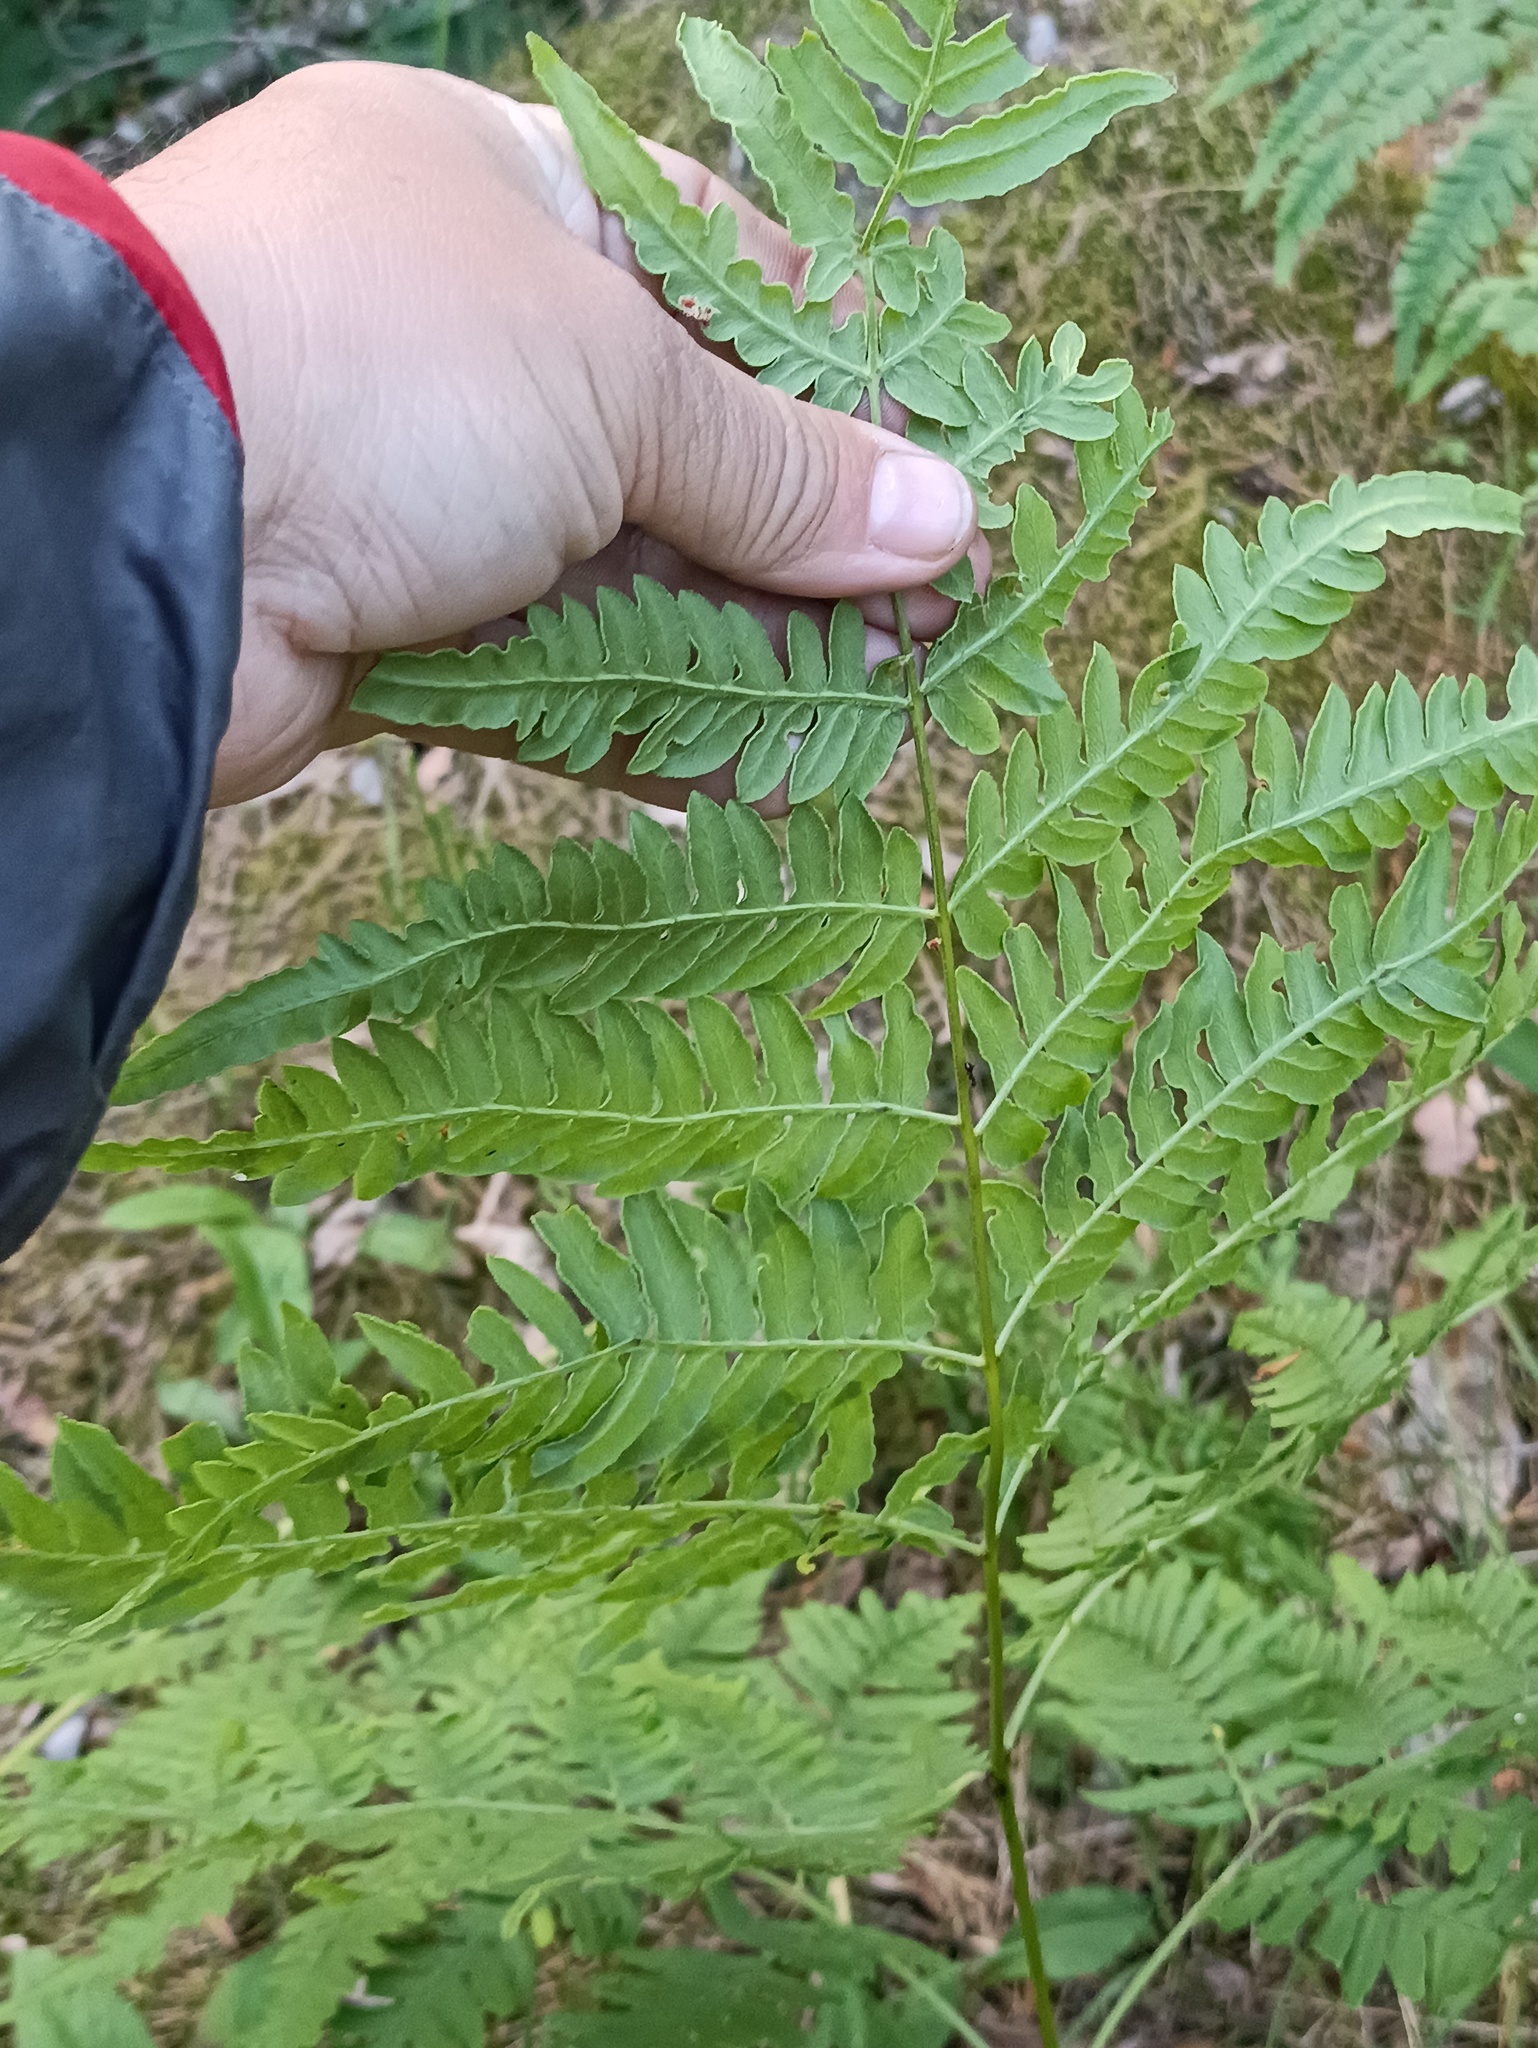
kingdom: Plantae
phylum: Tracheophyta
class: Polypodiopsida
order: Polypodiales
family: Dennstaedtiaceae
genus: Pteridium
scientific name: Pteridium aquilinum
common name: Bracken
